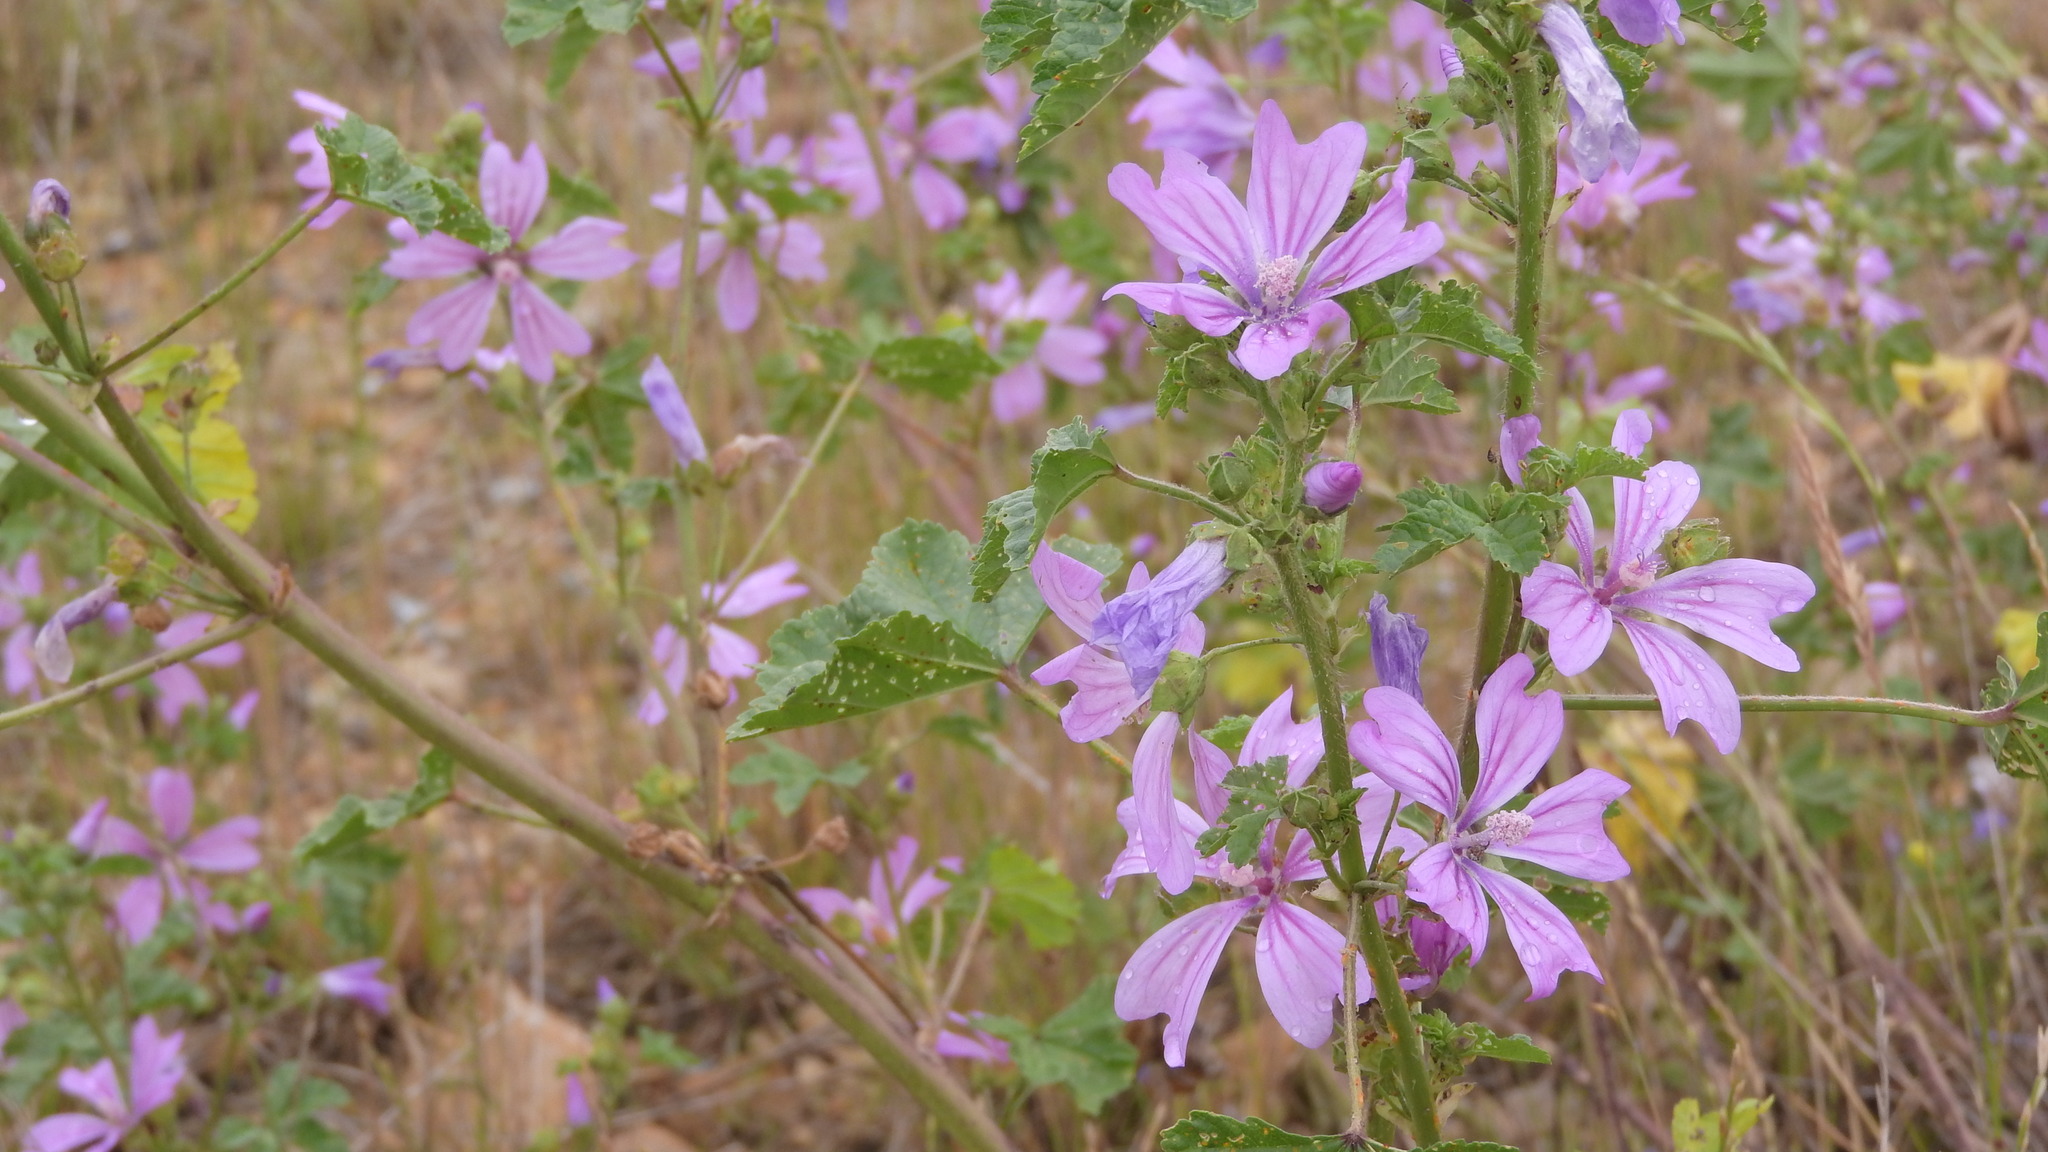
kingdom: Plantae
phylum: Tracheophyta
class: Magnoliopsida
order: Malvales
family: Malvaceae
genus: Malva
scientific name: Malva sylvestris
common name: Common mallow
